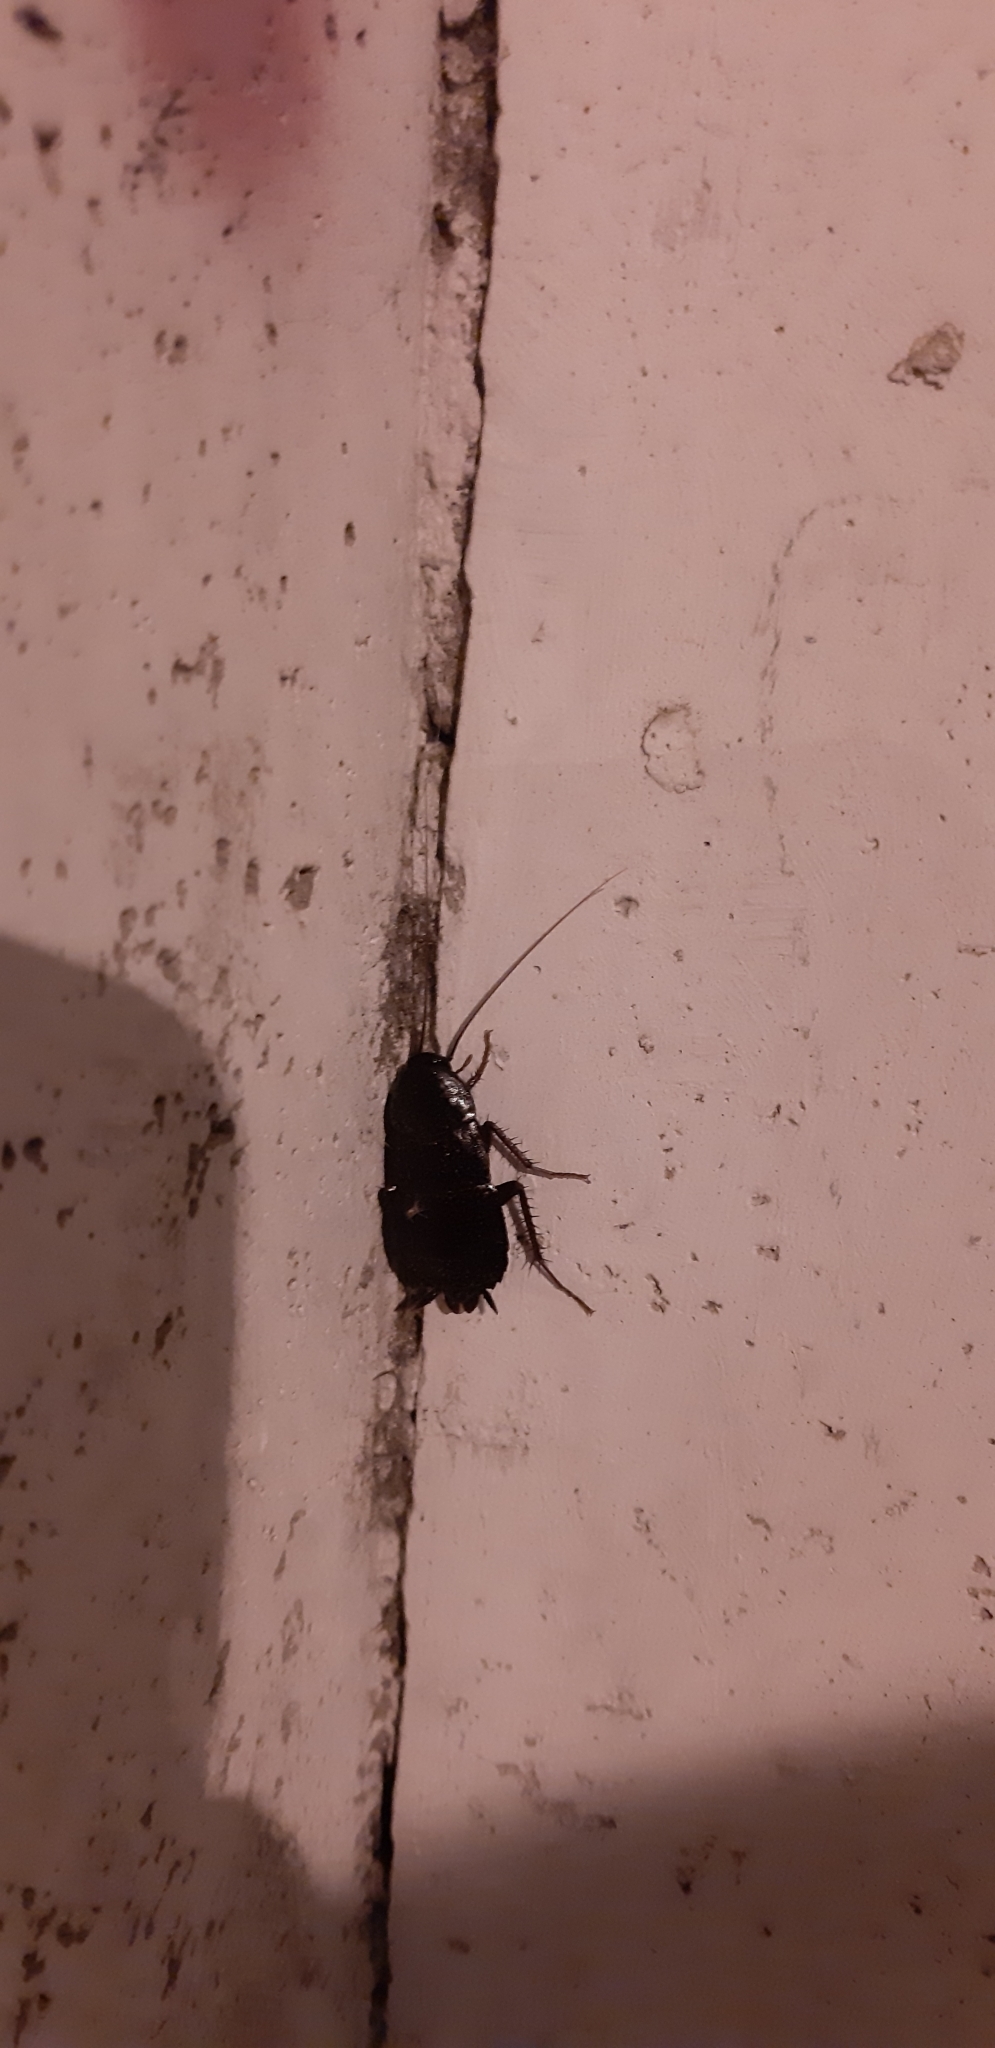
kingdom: Animalia
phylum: Arthropoda
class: Insecta
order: Blattodea
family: Blattidae
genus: Blatta
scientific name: Blatta orientalis
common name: Oriental cockroach
